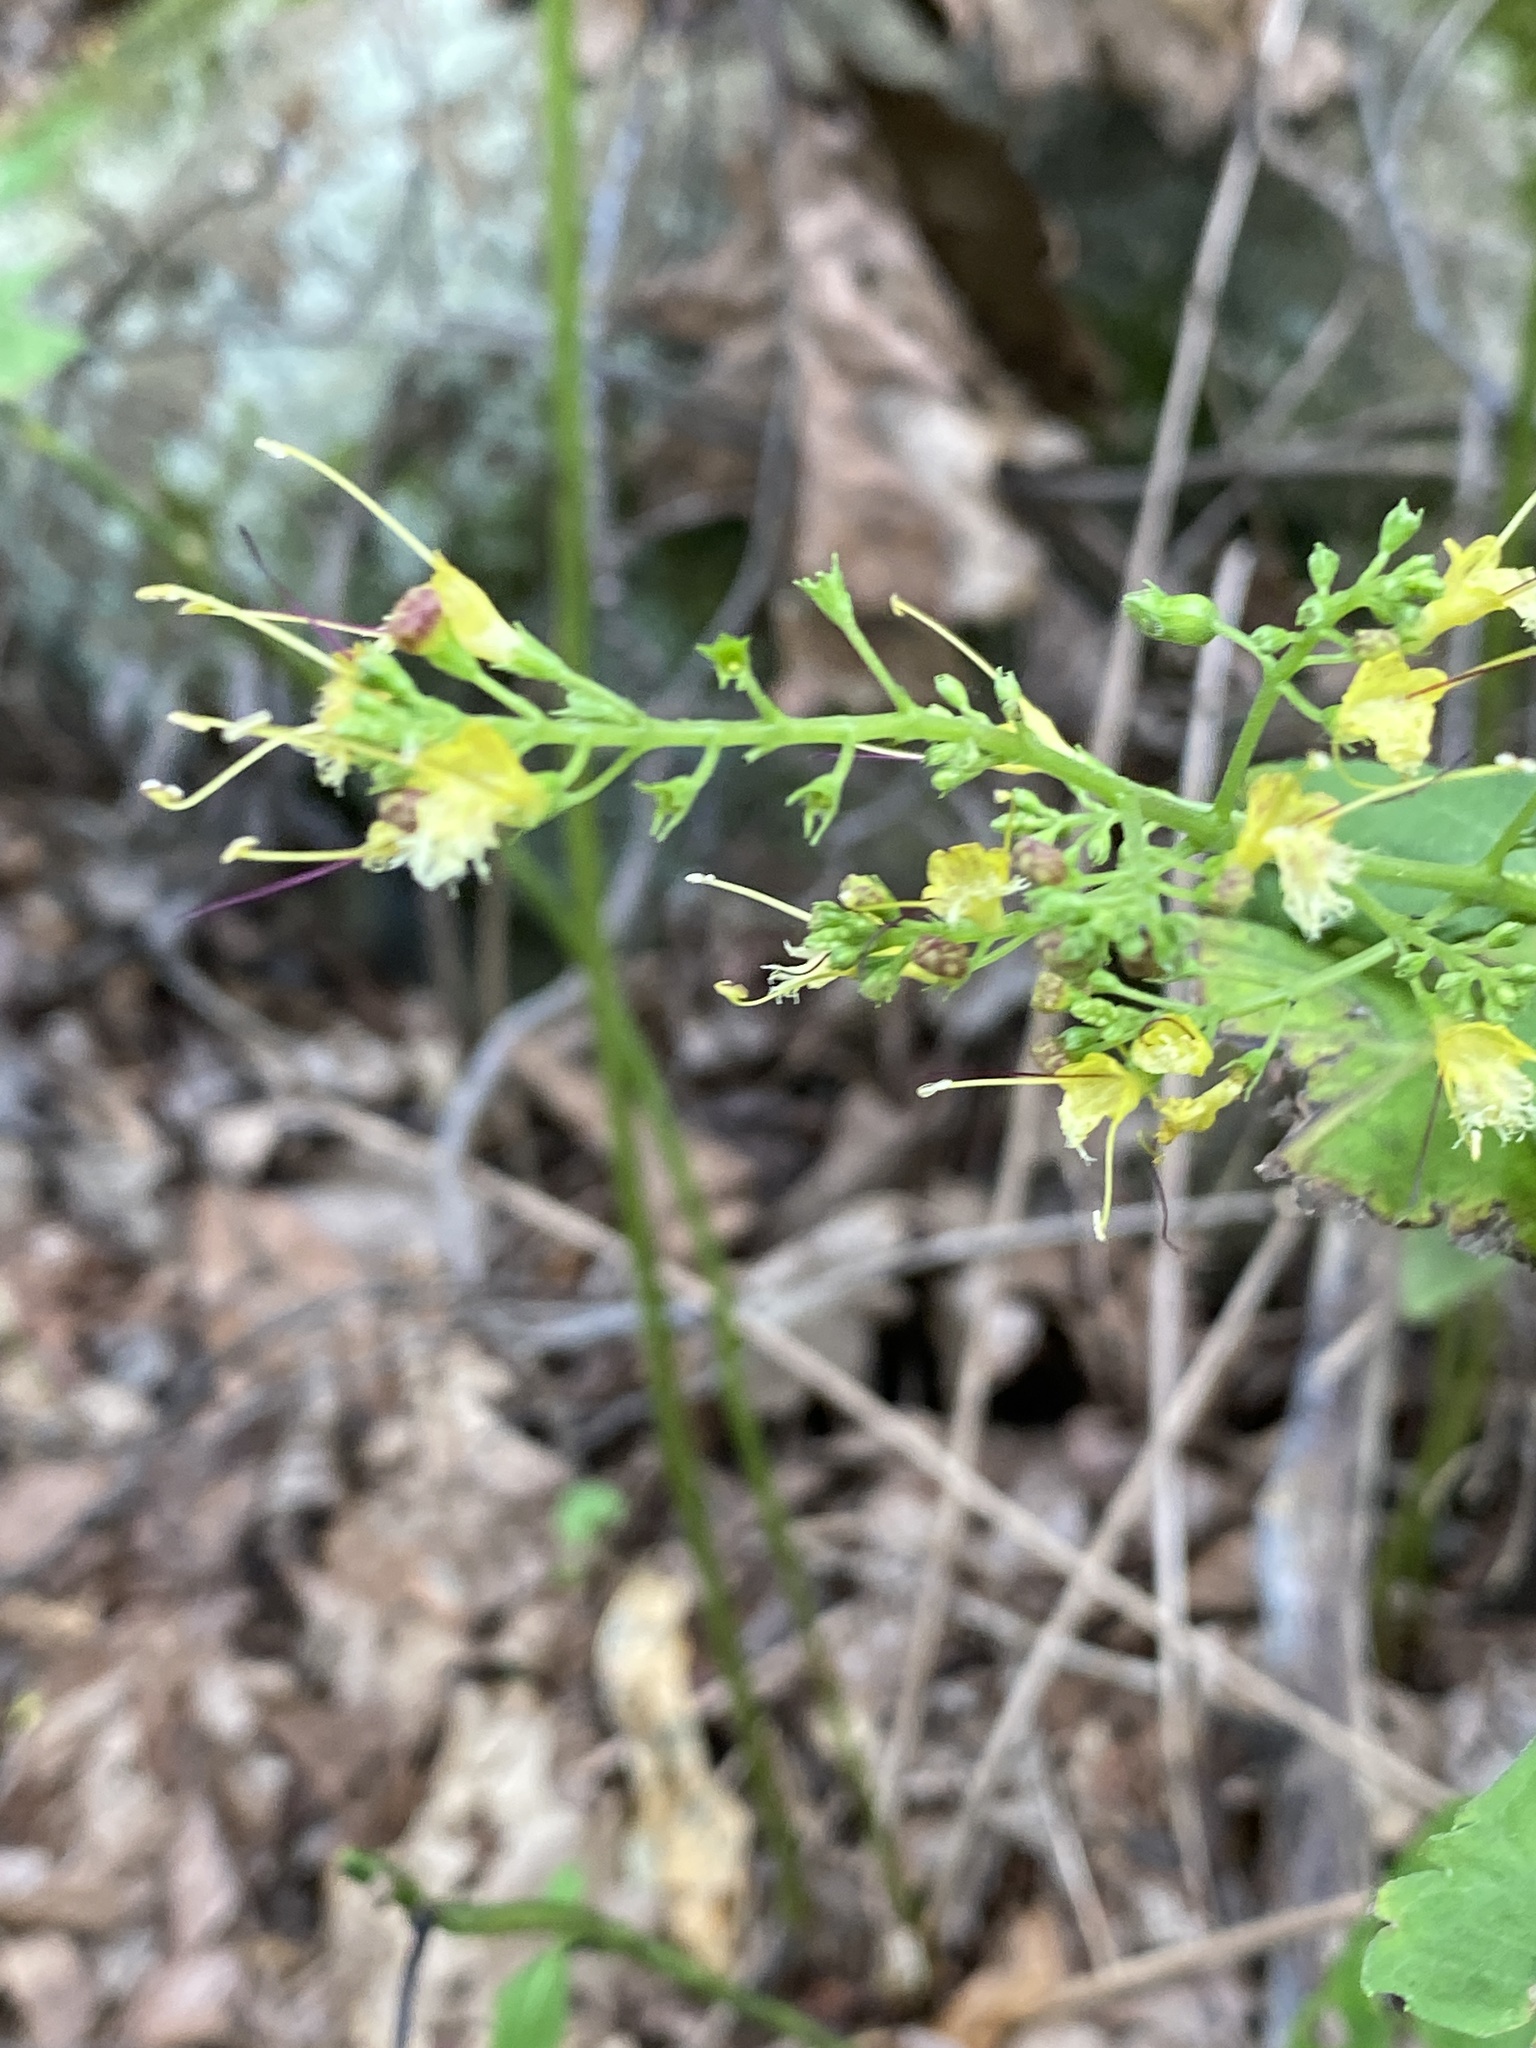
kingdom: Plantae
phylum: Tracheophyta
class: Magnoliopsida
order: Lamiales
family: Lamiaceae
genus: Collinsonia
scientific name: Collinsonia canadensis
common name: Northern horsebalm
